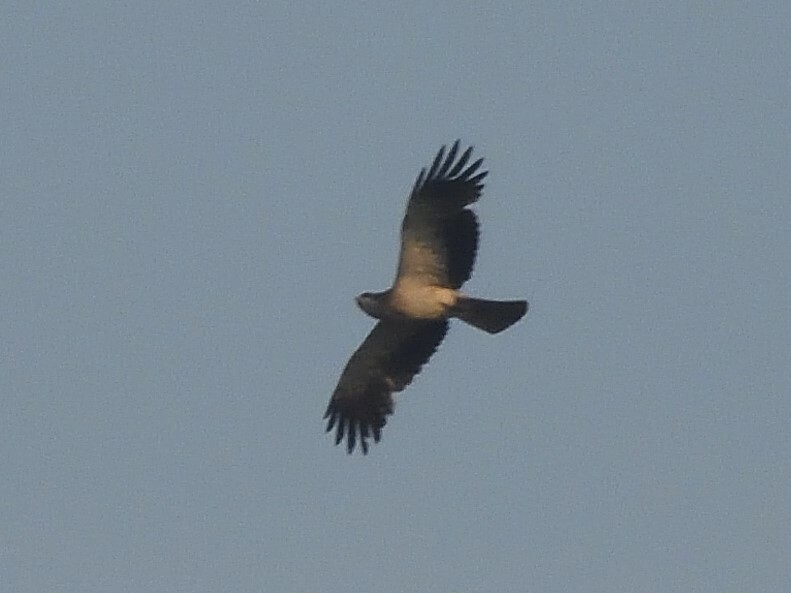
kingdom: Animalia
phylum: Chordata
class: Aves
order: Accipitriformes
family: Accipitridae
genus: Hieraaetus
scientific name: Hieraaetus pennatus
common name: Booted eagle
